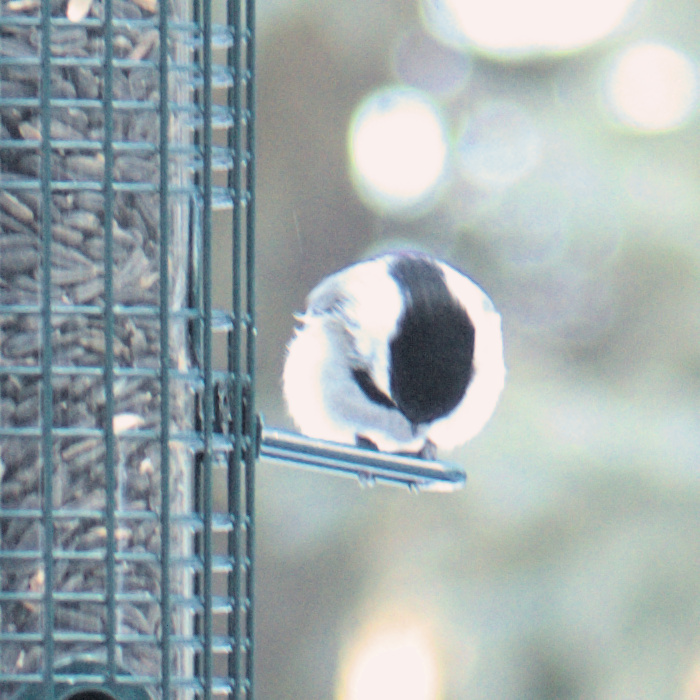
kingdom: Animalia
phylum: Chordata
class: Aves
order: Passeriformes
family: Paridae
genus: Poecile
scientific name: Poecile atricapillus
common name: Black-capped chickadee
